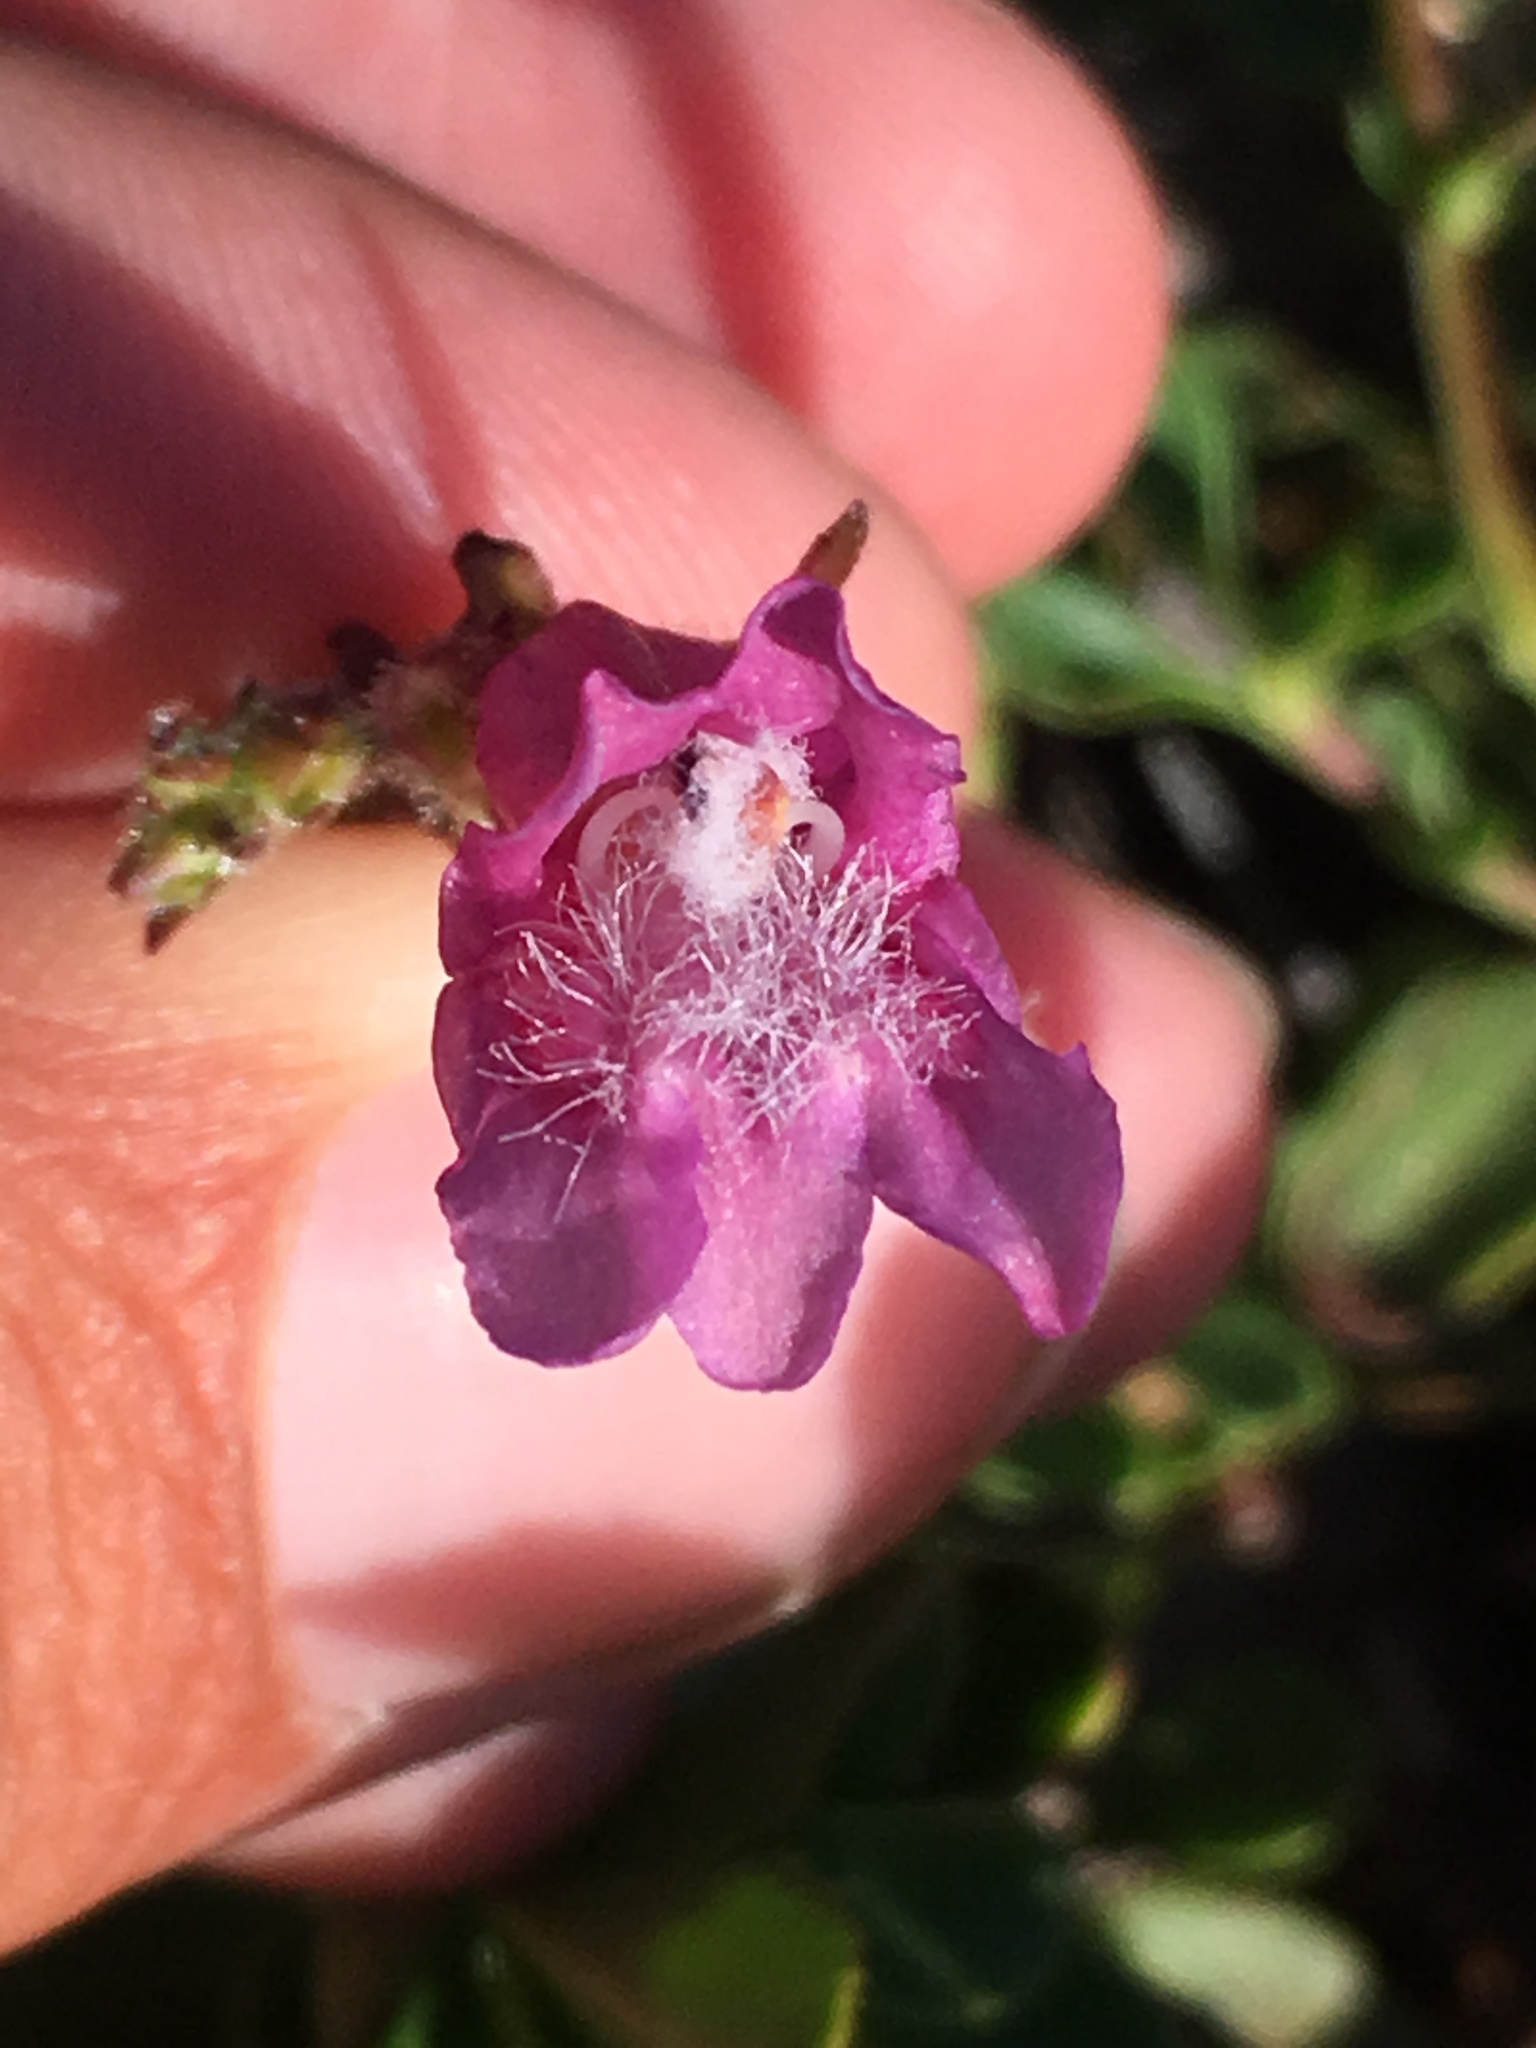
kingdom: Plantae
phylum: Tracheophyta
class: Magnoliopsida
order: Lamiales
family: Plantaginaceae
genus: Penstemon
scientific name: Penstemon newberryi
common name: Mountain-pride
